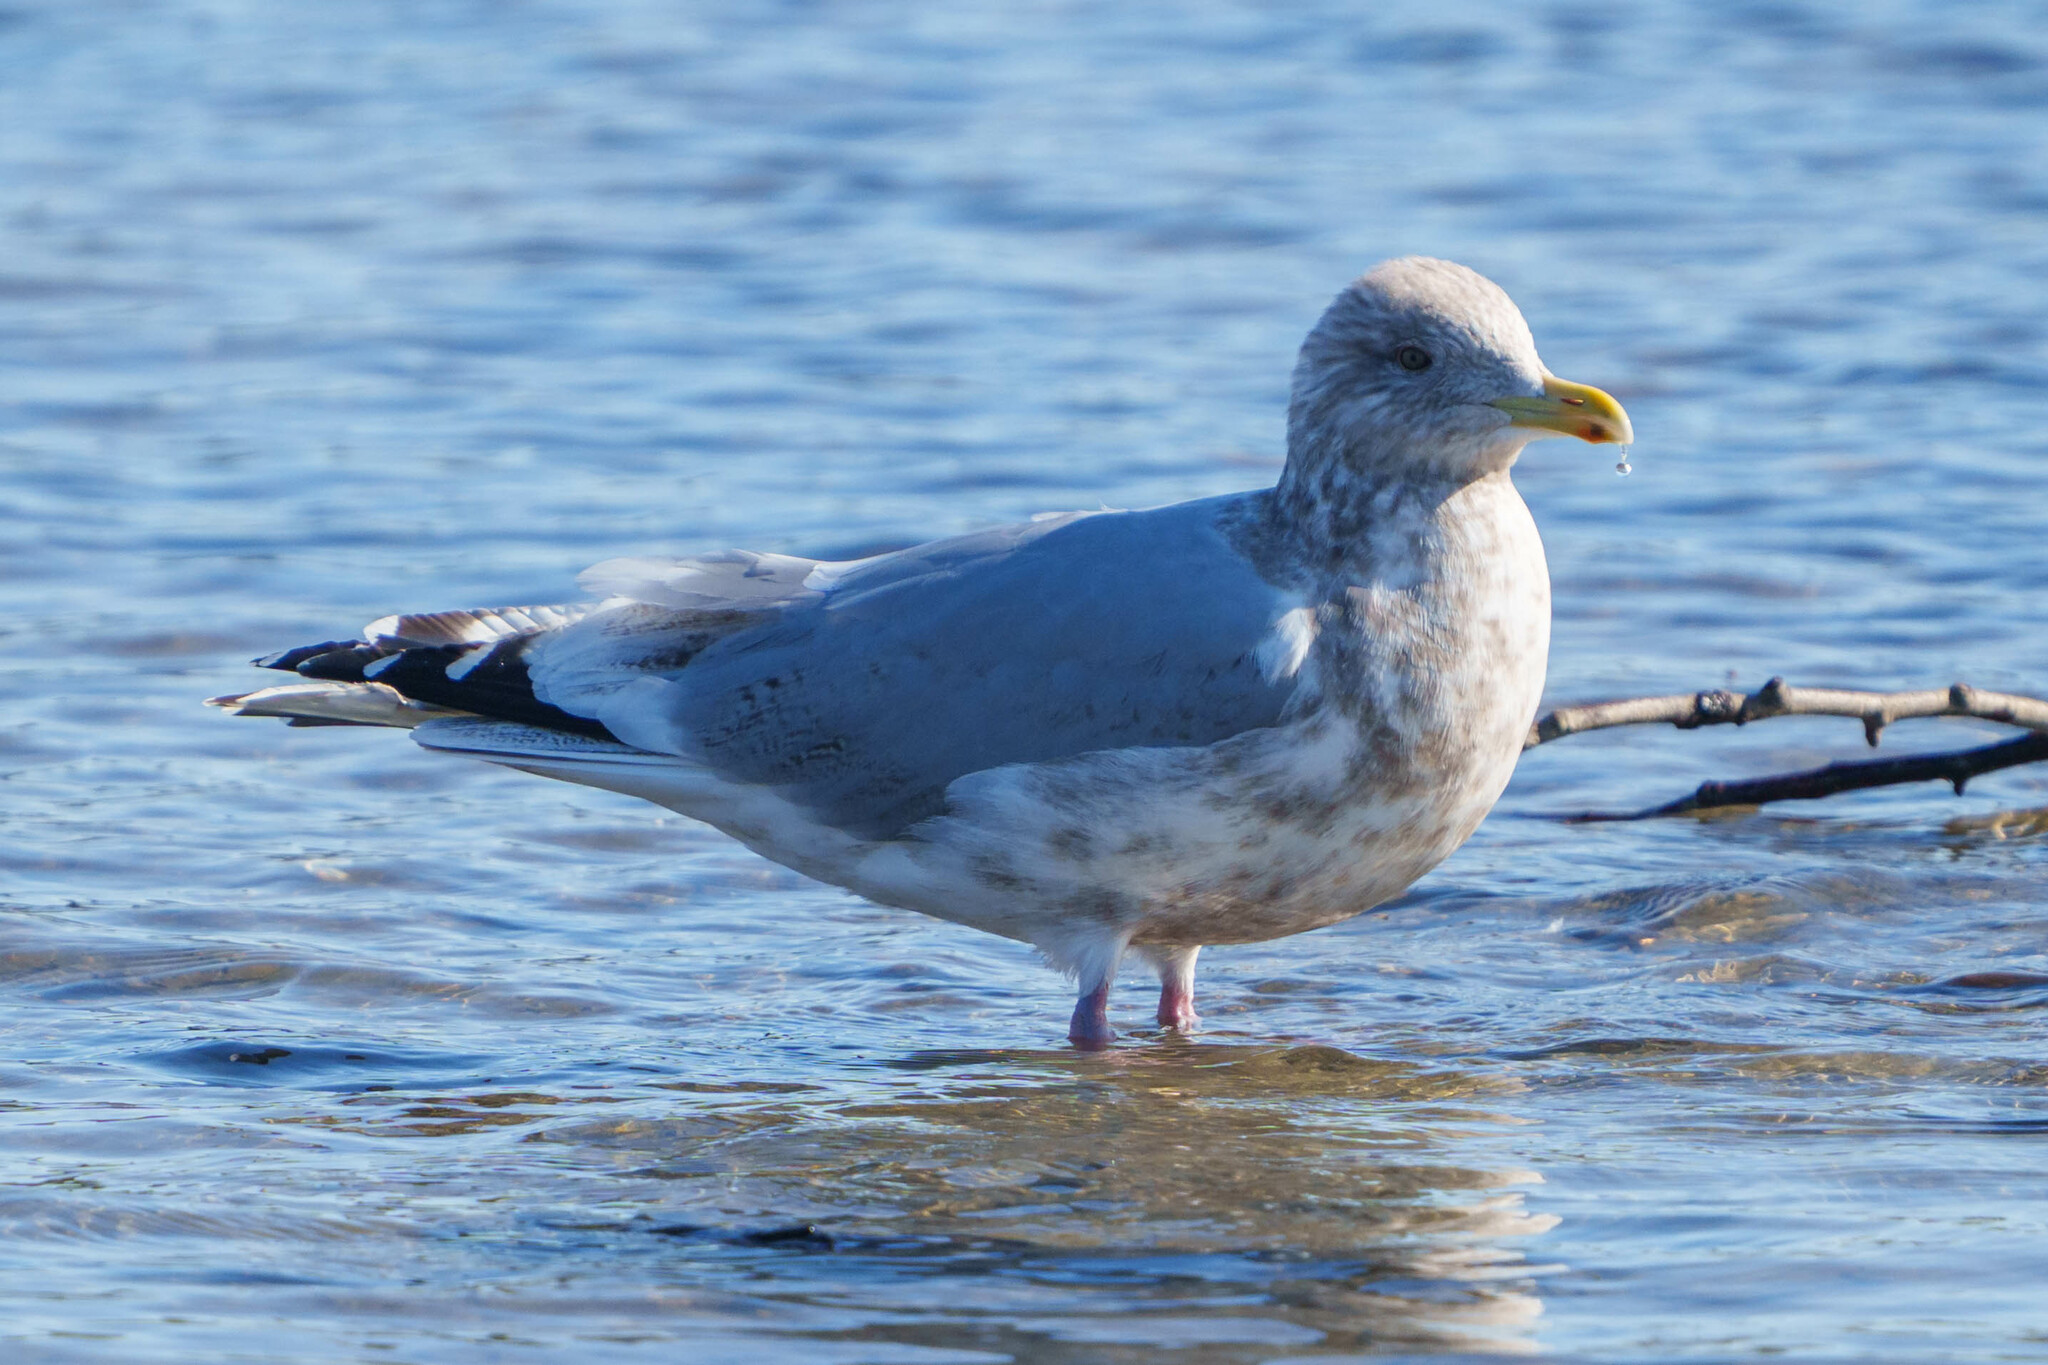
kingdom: Animalia
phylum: Chordata
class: Aves
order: Charadriiformes
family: Laridae
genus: Larus
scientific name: Larus glaucoides
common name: Iceland gull
